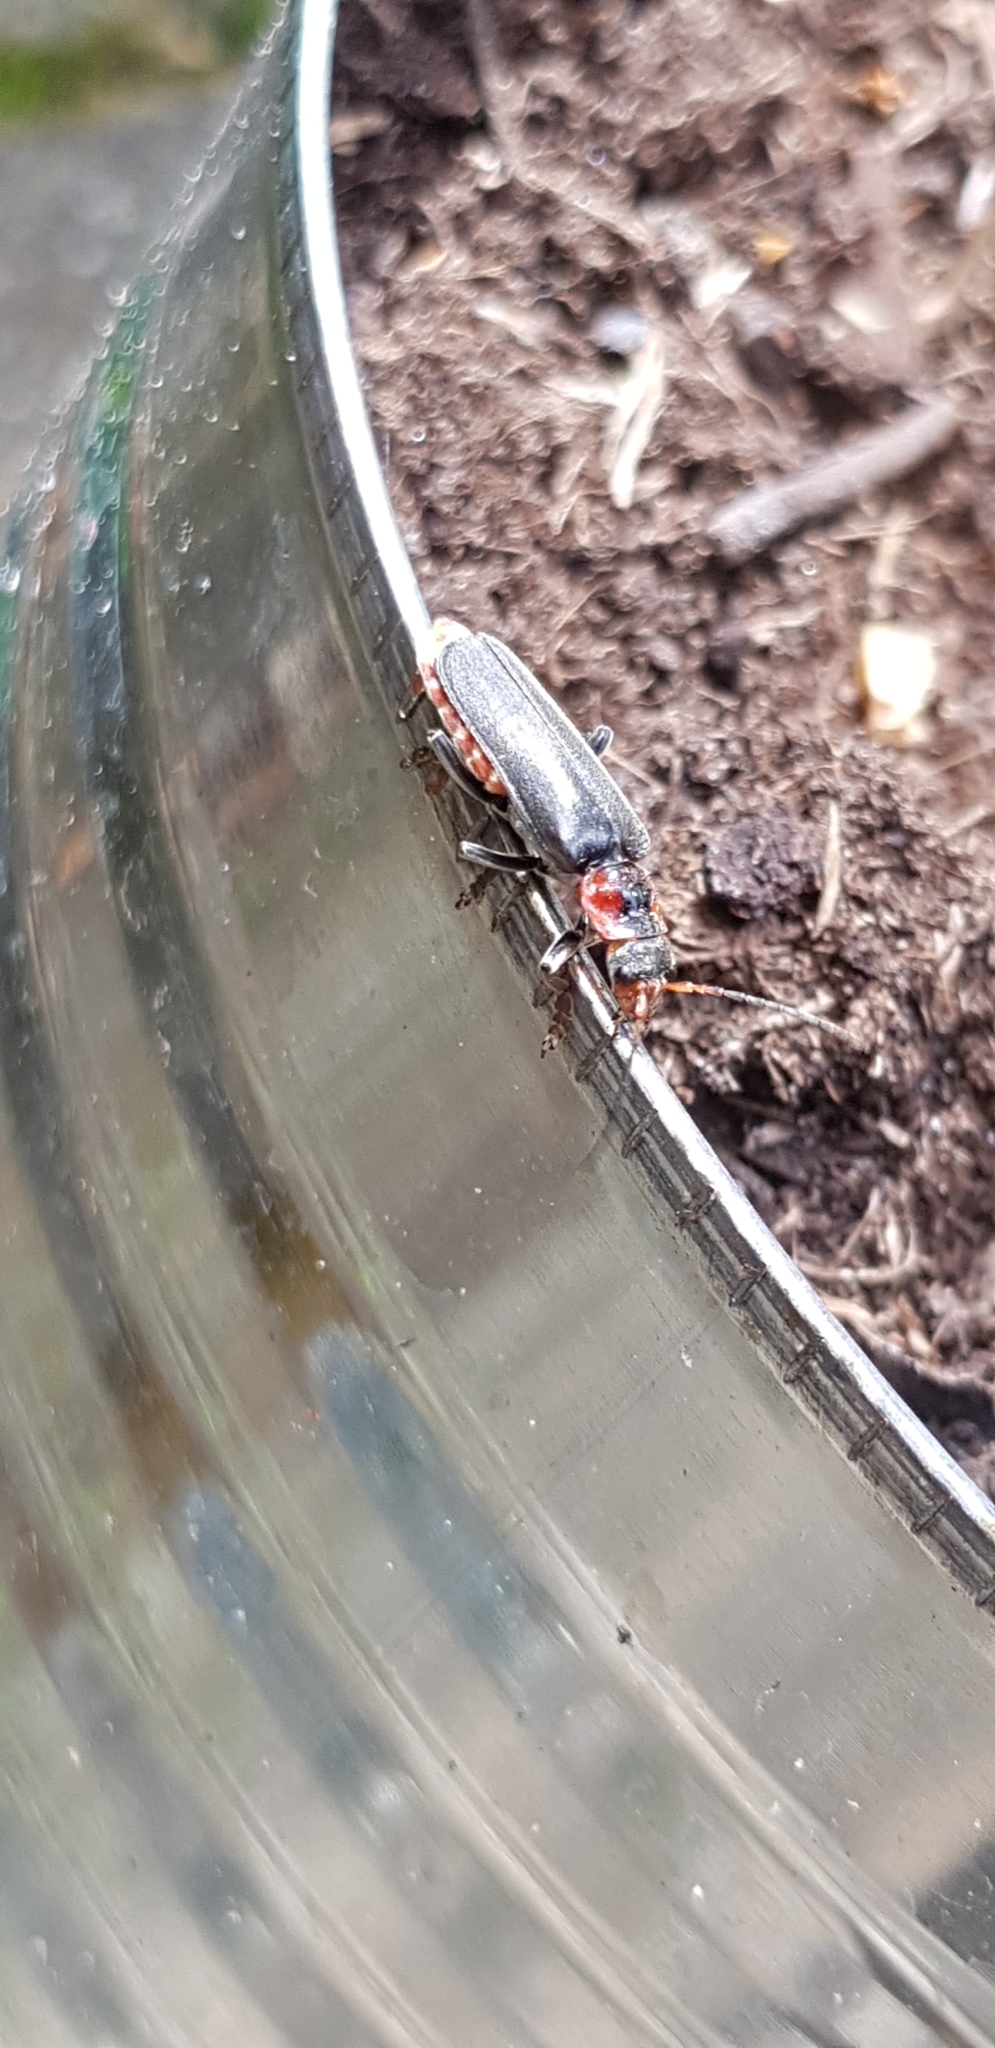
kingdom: Animalia
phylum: Arthropoda
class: Insecta
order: Coleoptera
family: Cantharidae
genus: Cantharis
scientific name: Cantharis fusca
